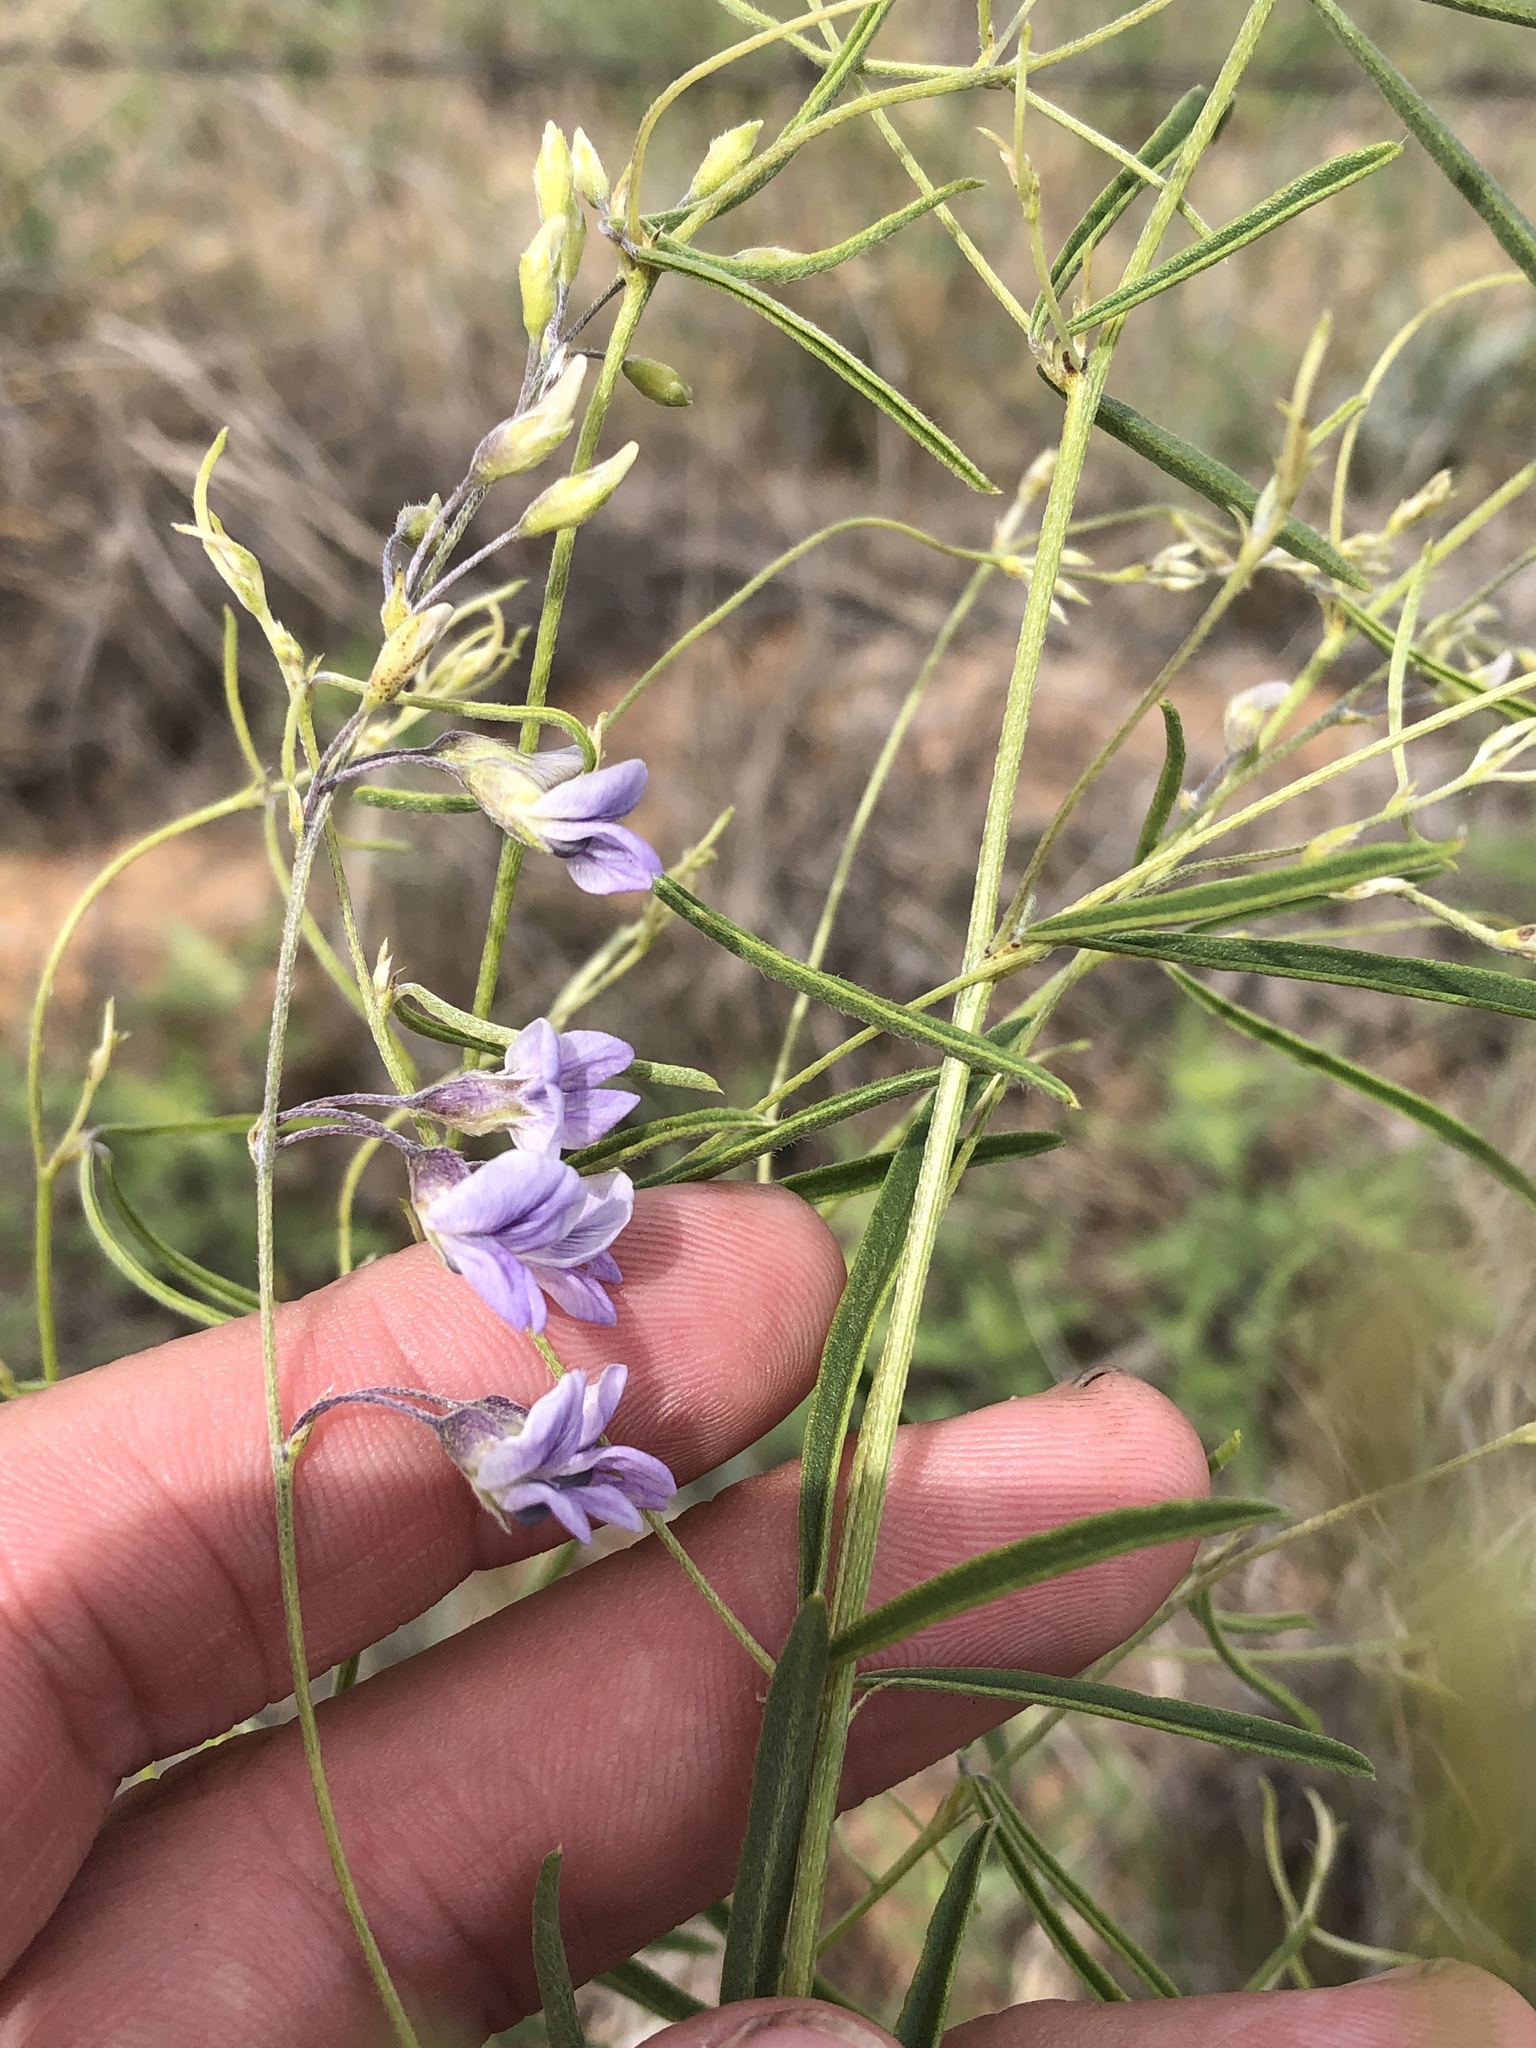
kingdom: Plantae
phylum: Tracheophyta
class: Magnoliopsida
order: Fabales
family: Fabaceae
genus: Pediomelum
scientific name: Pediomelum linearifolium
